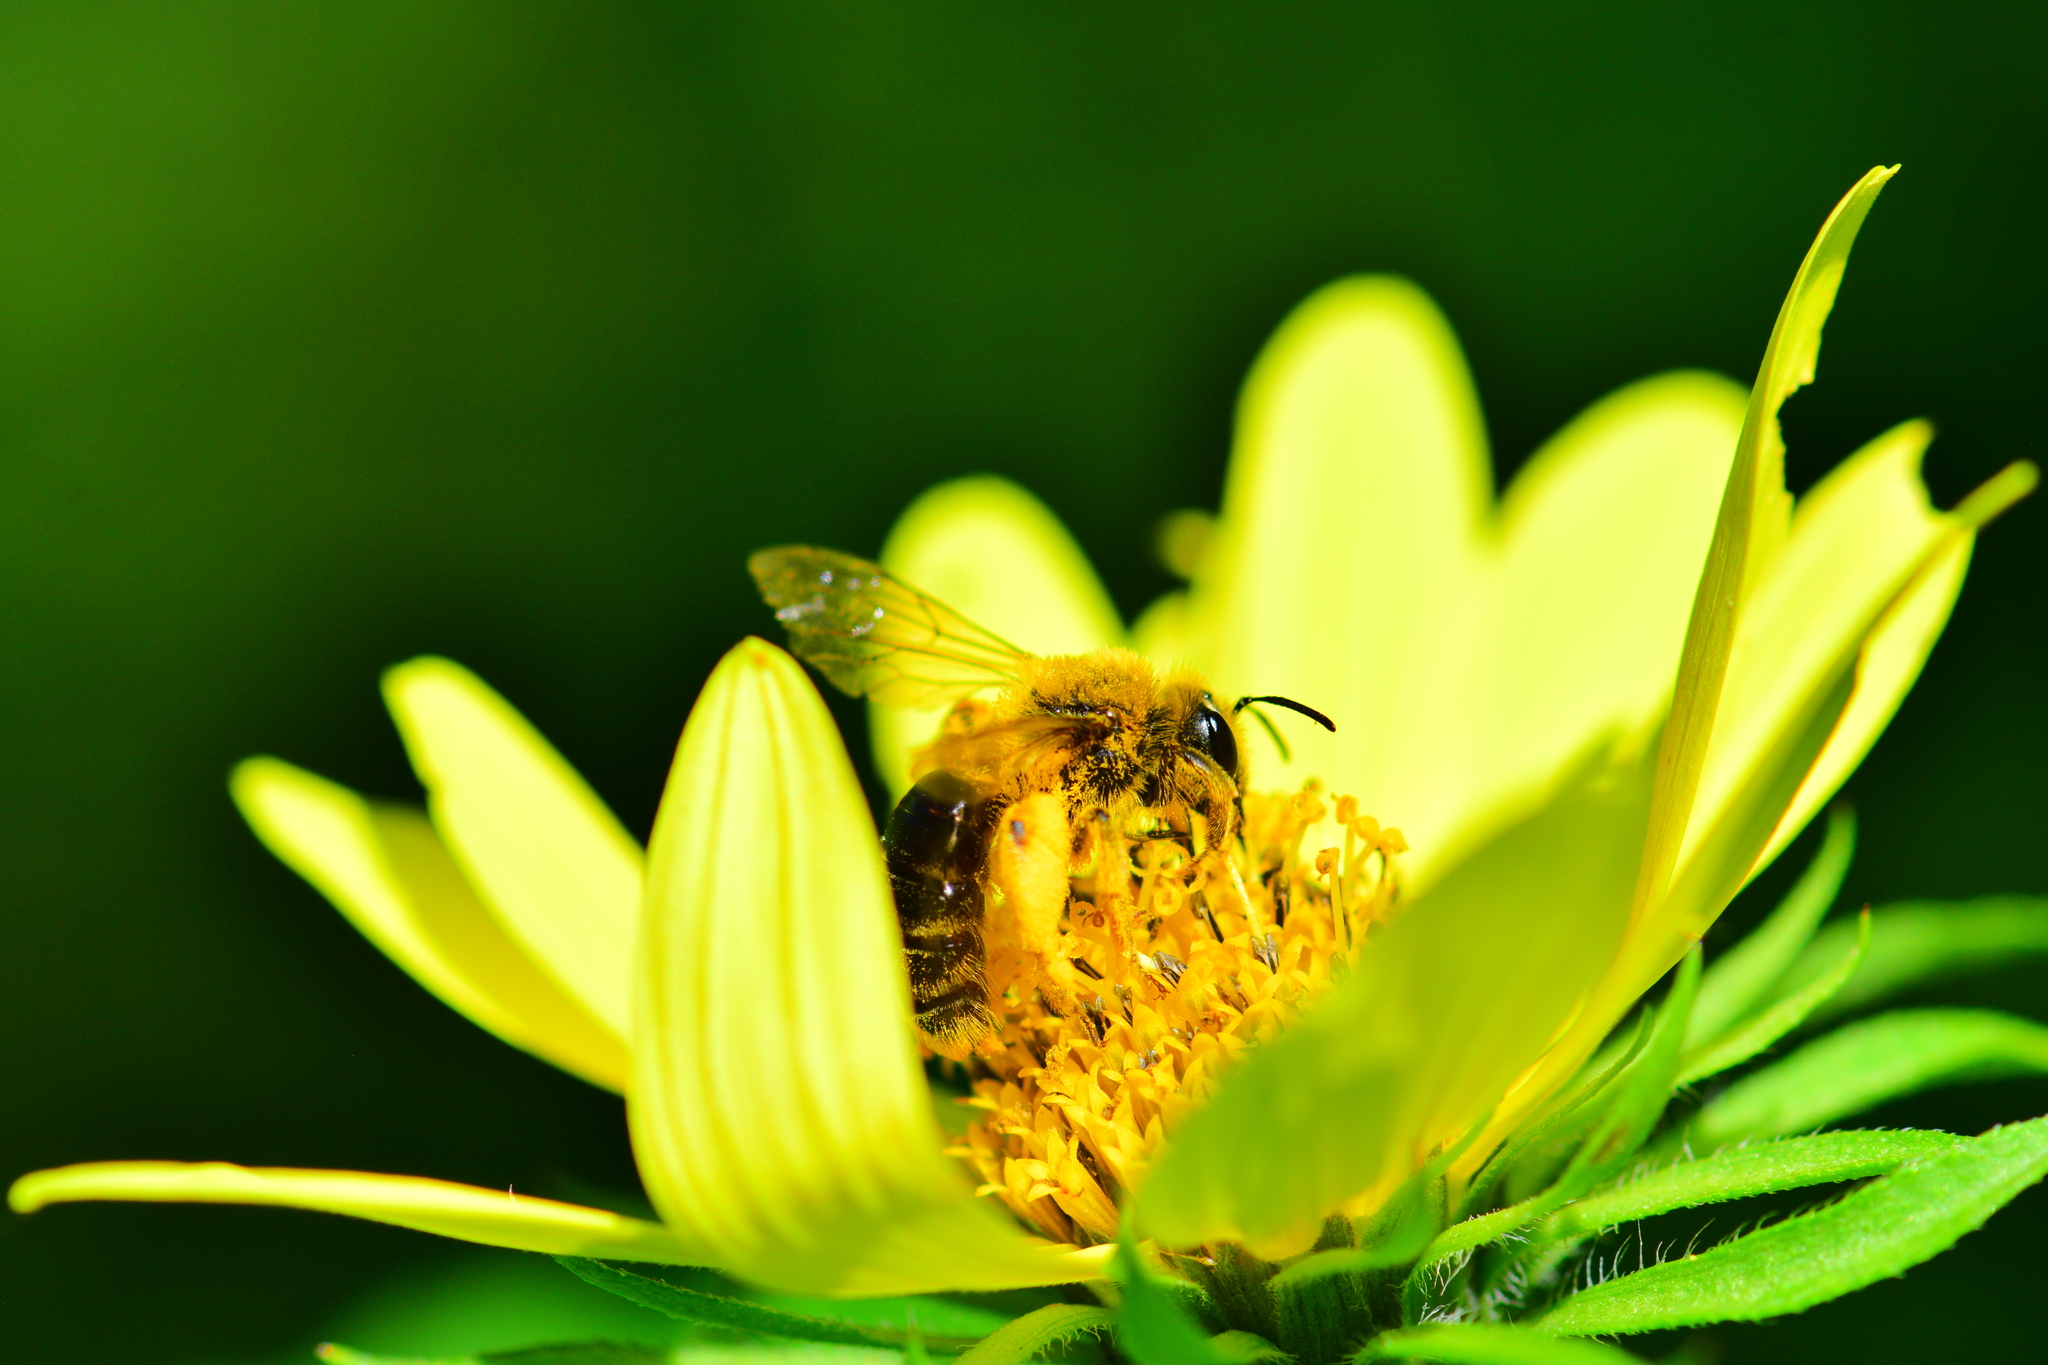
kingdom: Animalia
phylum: Arthropoda
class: Insecta
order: Hymenoptera
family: Andrenidae
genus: Andrena
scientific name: Andrena helianthi
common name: Sunflower mining bee
